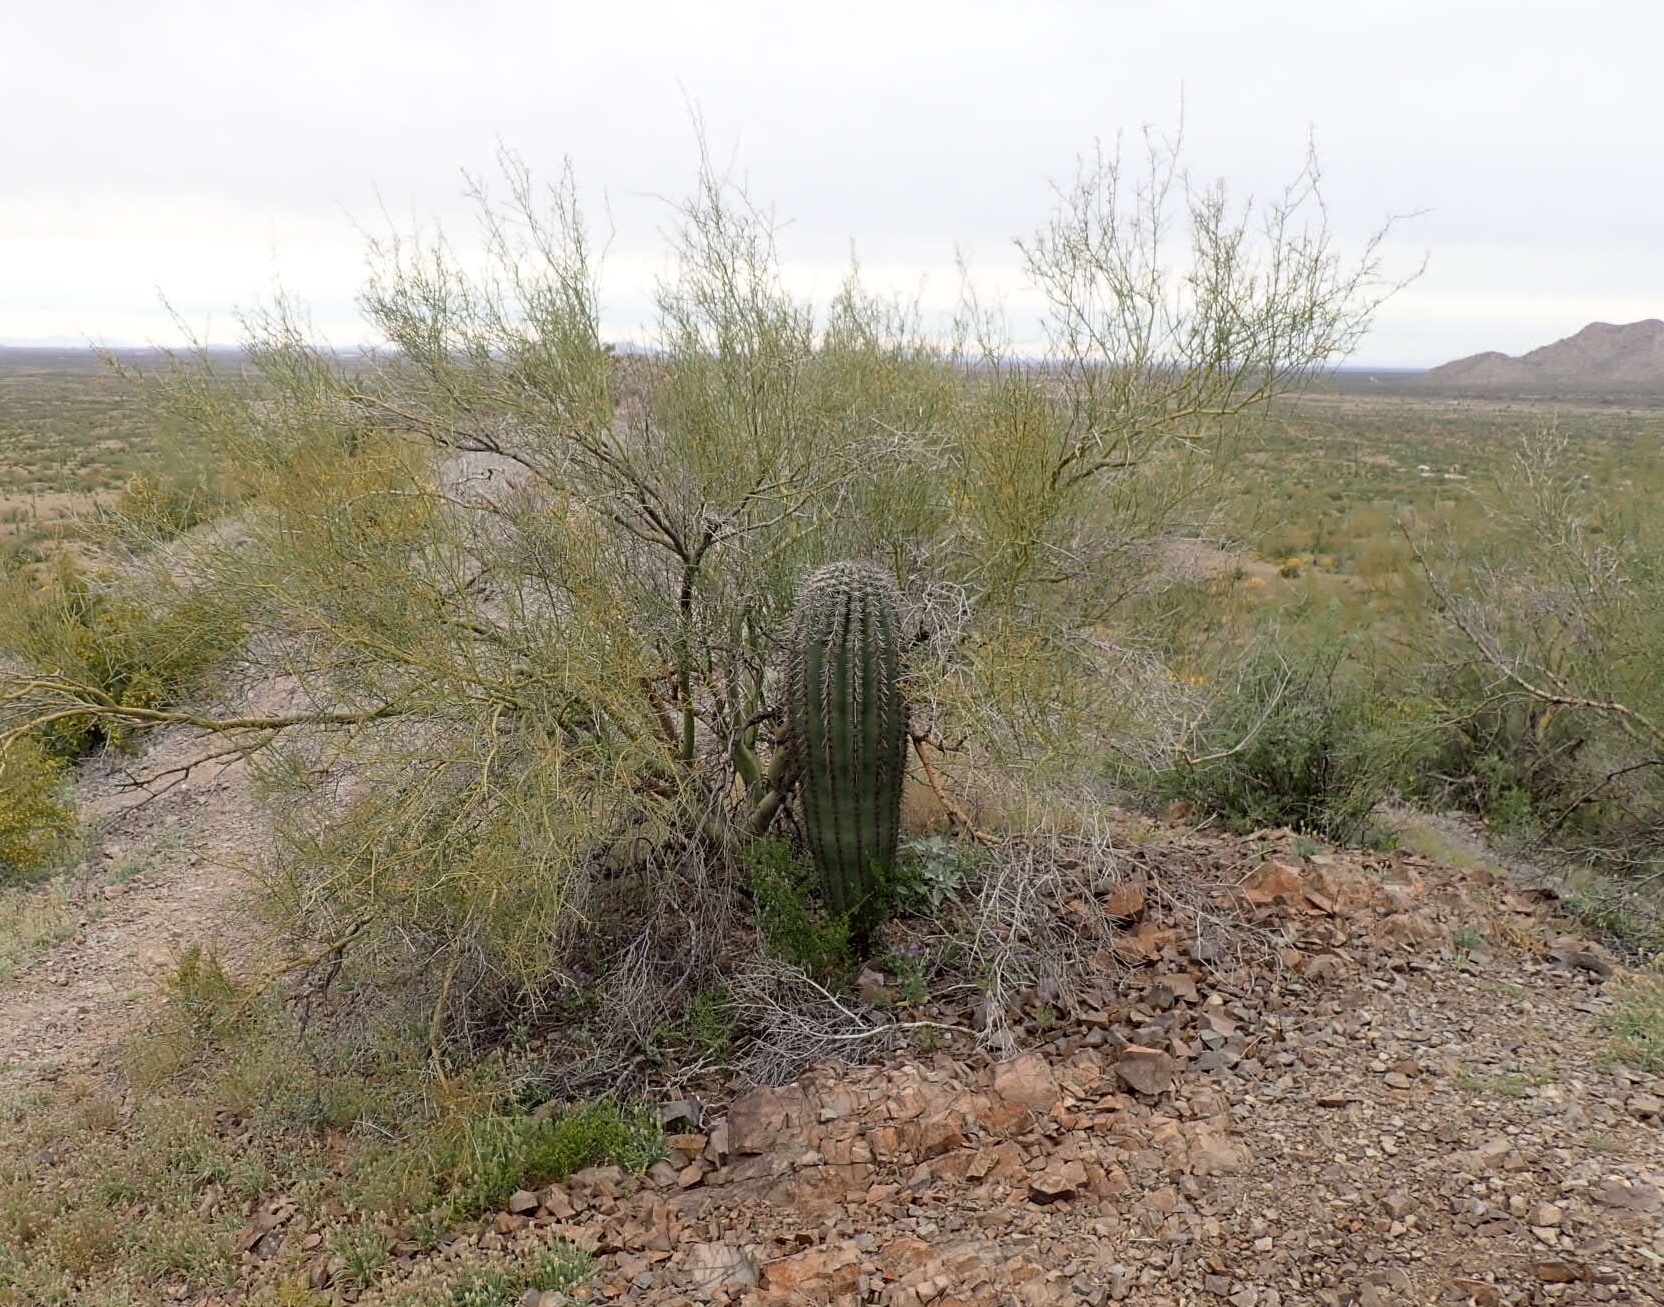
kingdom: Plantae
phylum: Tracheophyta
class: Magnoliopsida
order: Caryophyllales
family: Cactaceae
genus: Carnegiea
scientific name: Carnegiea gigantea
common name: Saguaro
